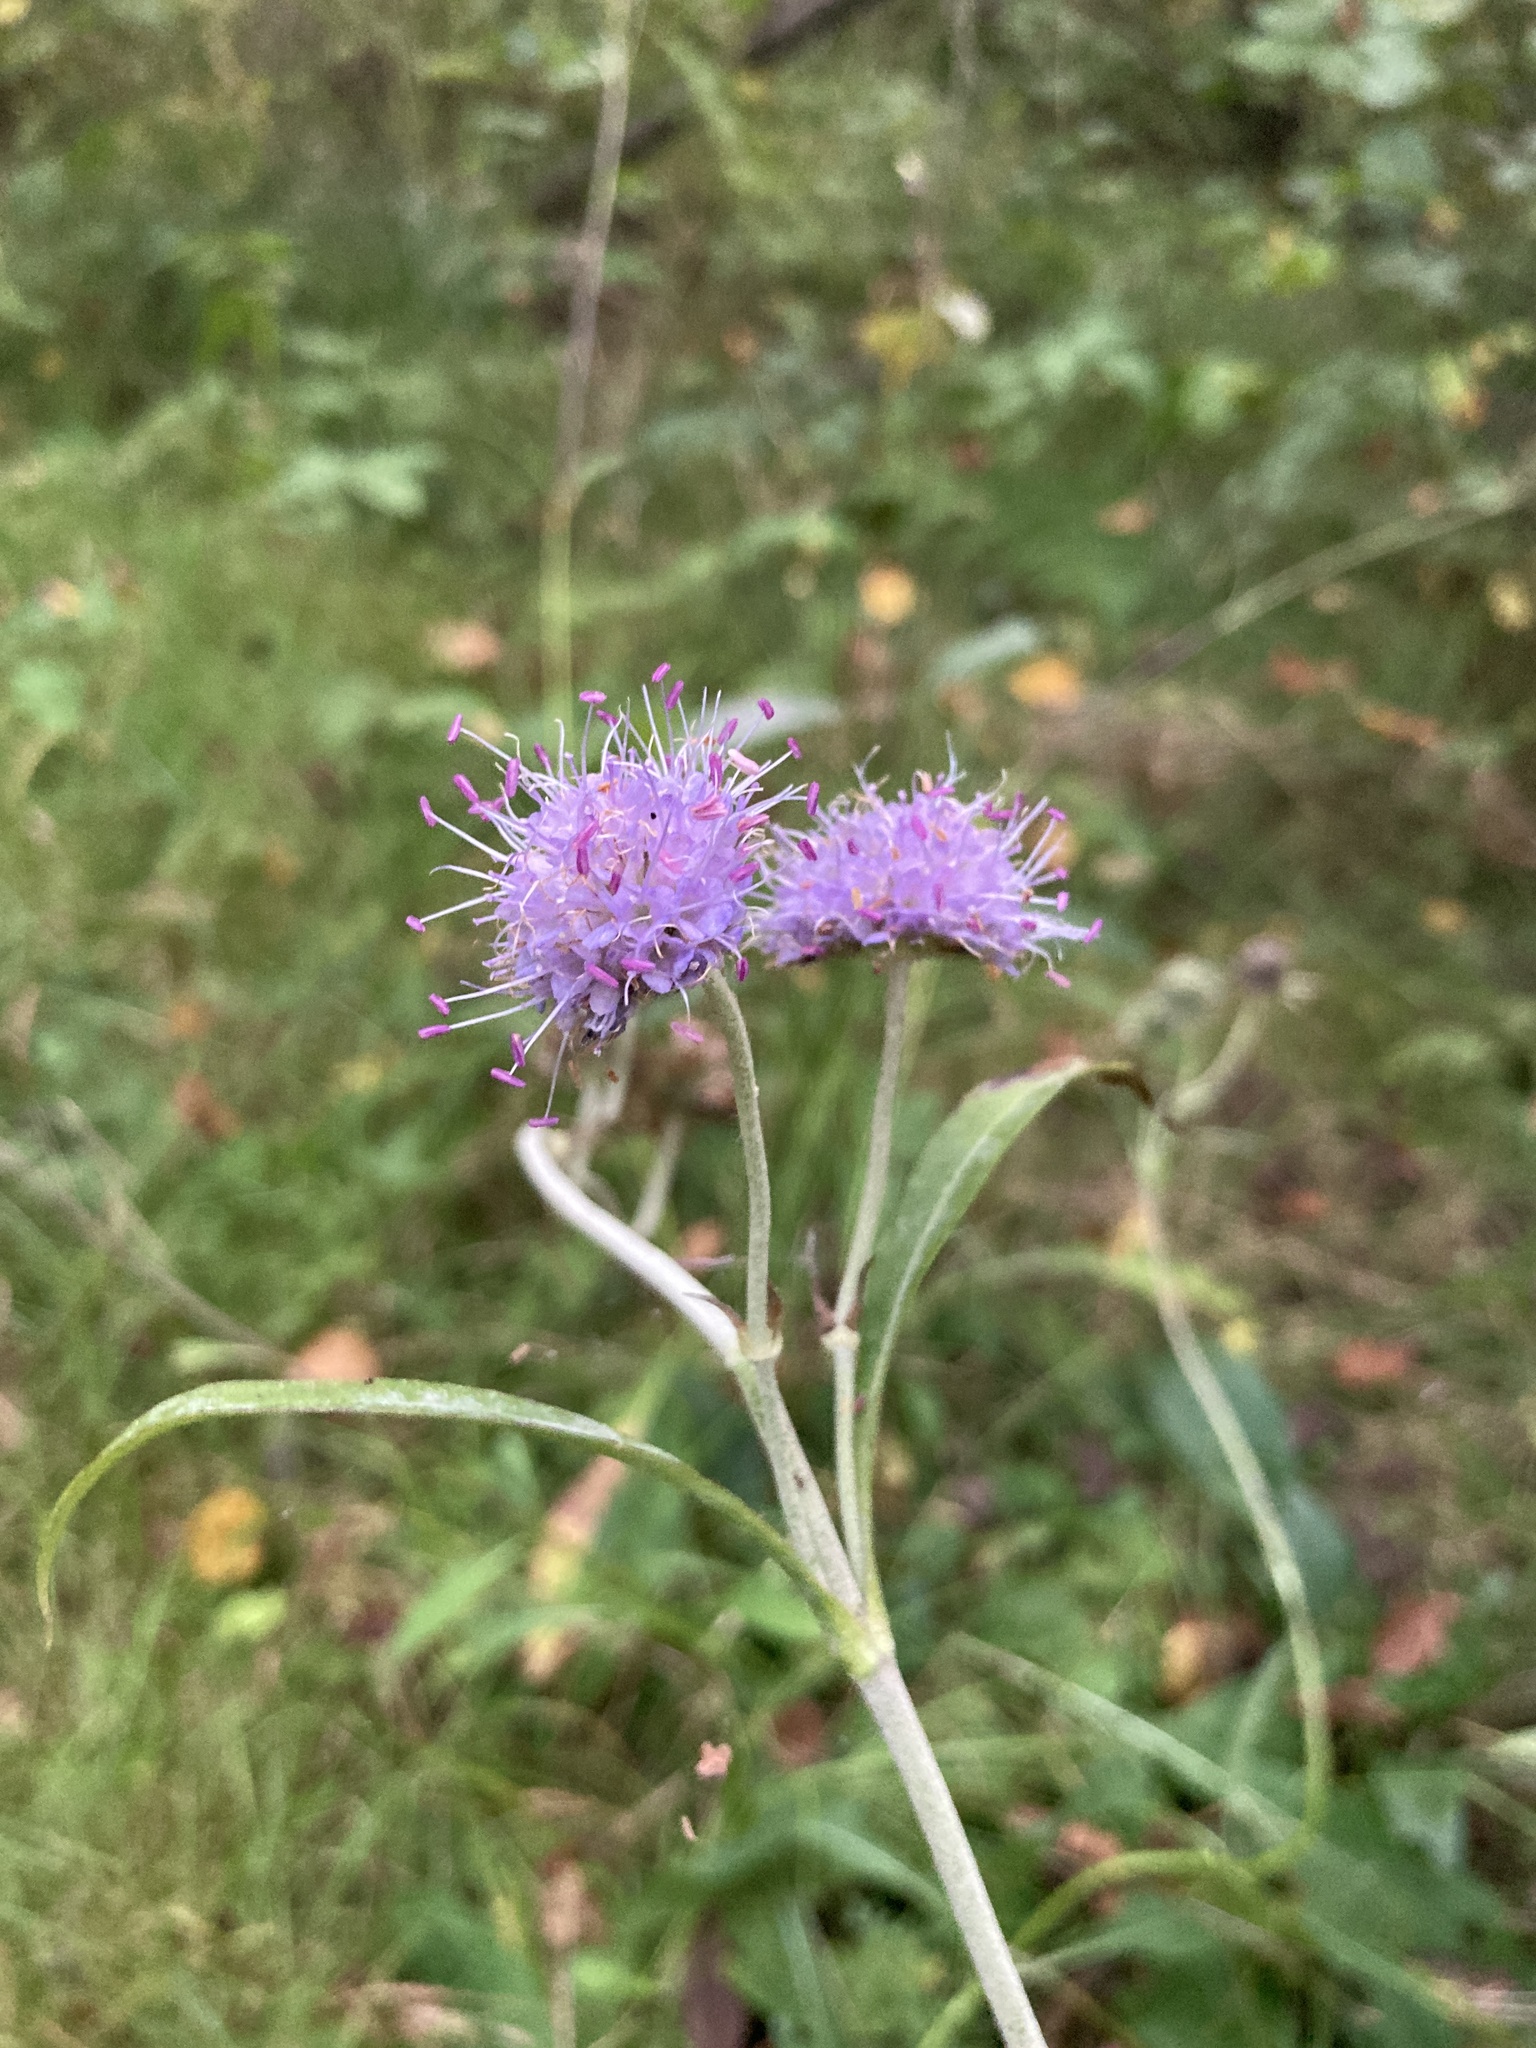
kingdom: Plantae
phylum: Tracheophyta
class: Magnoliopsida
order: Dipsacales
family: Caprifoliaceae
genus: Succisa
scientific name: Succisa pratensis
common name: Devil's-bit
